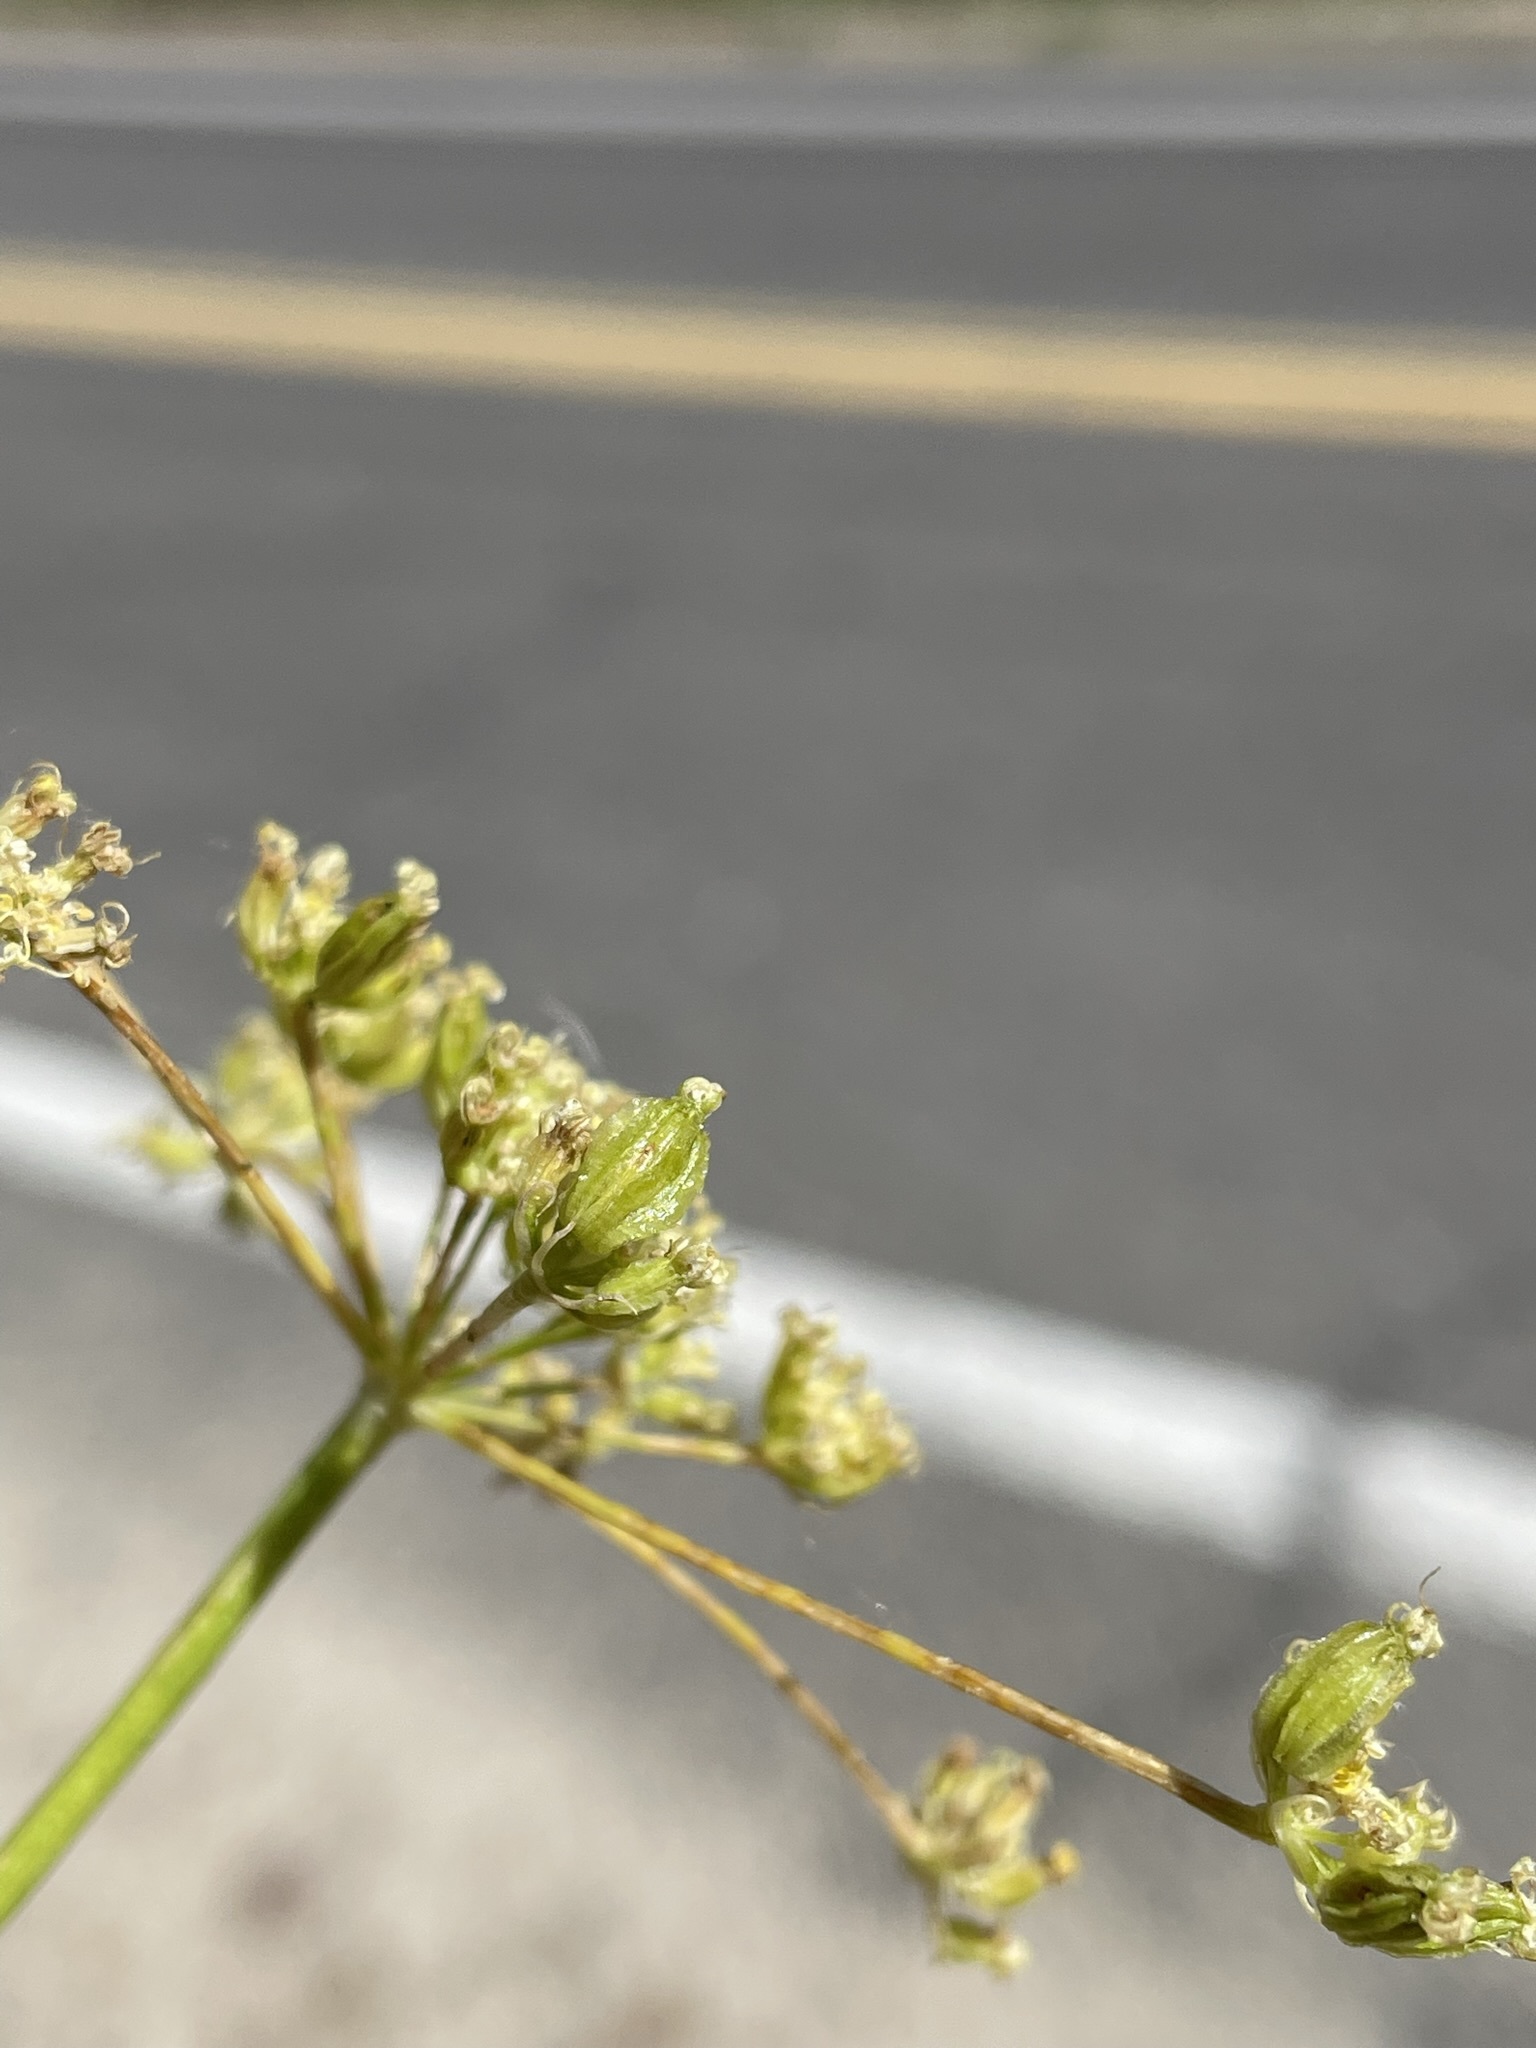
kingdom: Plantae
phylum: Tracheophyta
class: Magnoliopsida
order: Apiales
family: Apiaceae
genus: Pteryxia
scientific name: Pteryxia petraea
